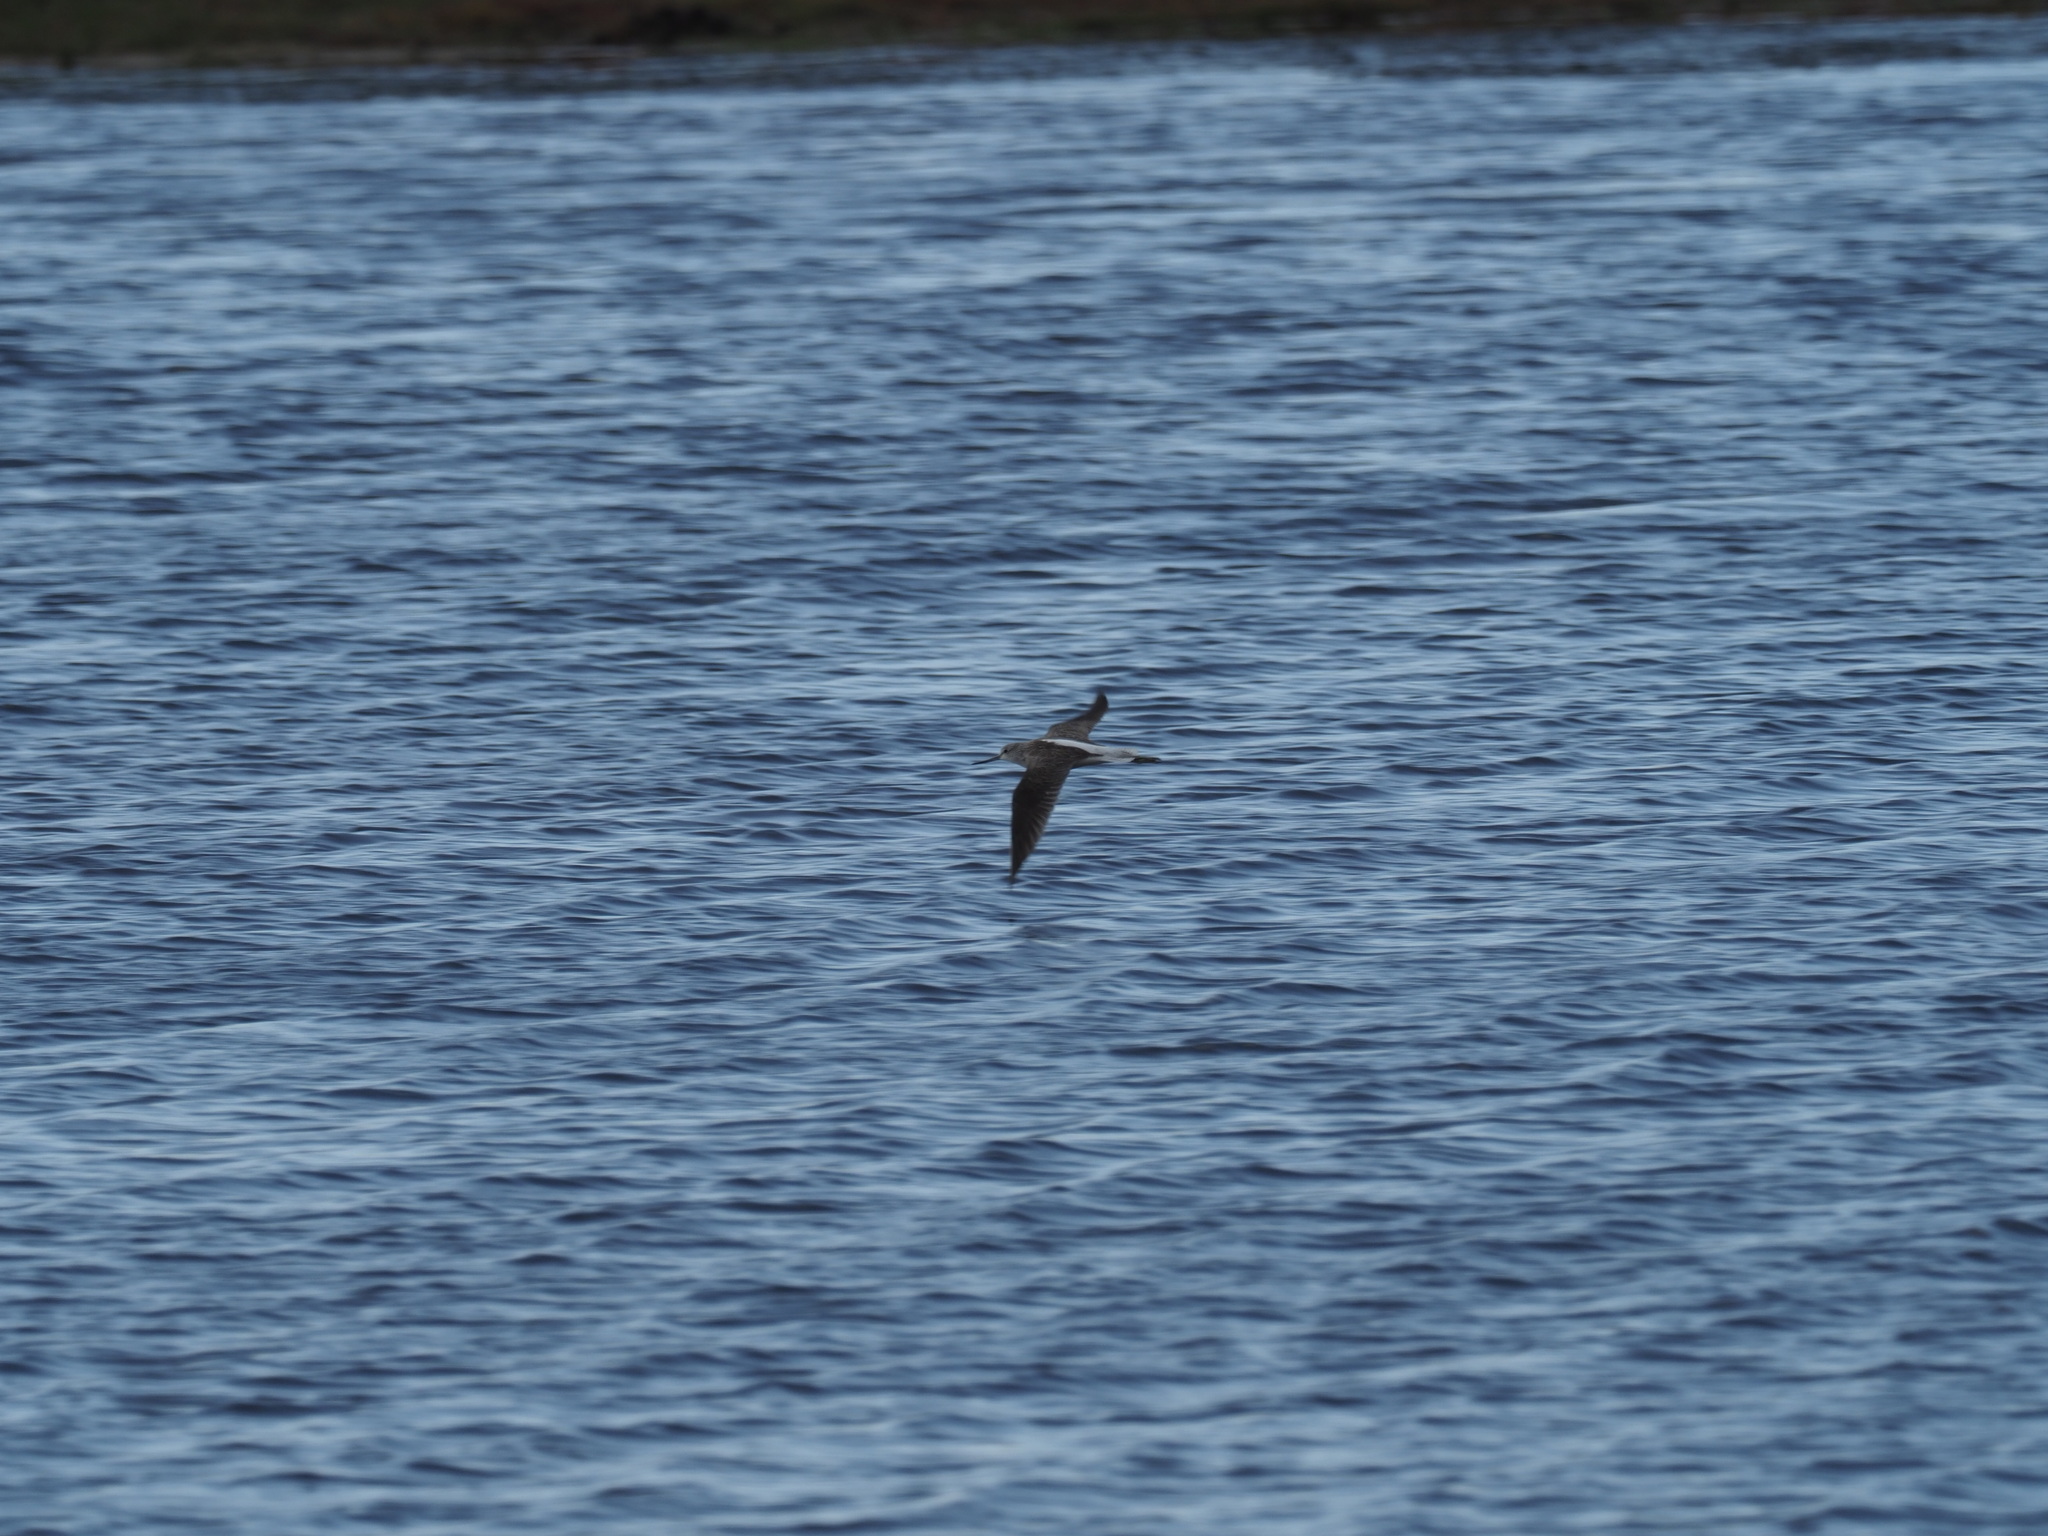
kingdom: Animalia
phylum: Chordata
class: Aves
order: Charadriiformes
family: Scolopacidae
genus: Tringa
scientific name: Tringa nebularia
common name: Common greenshank
